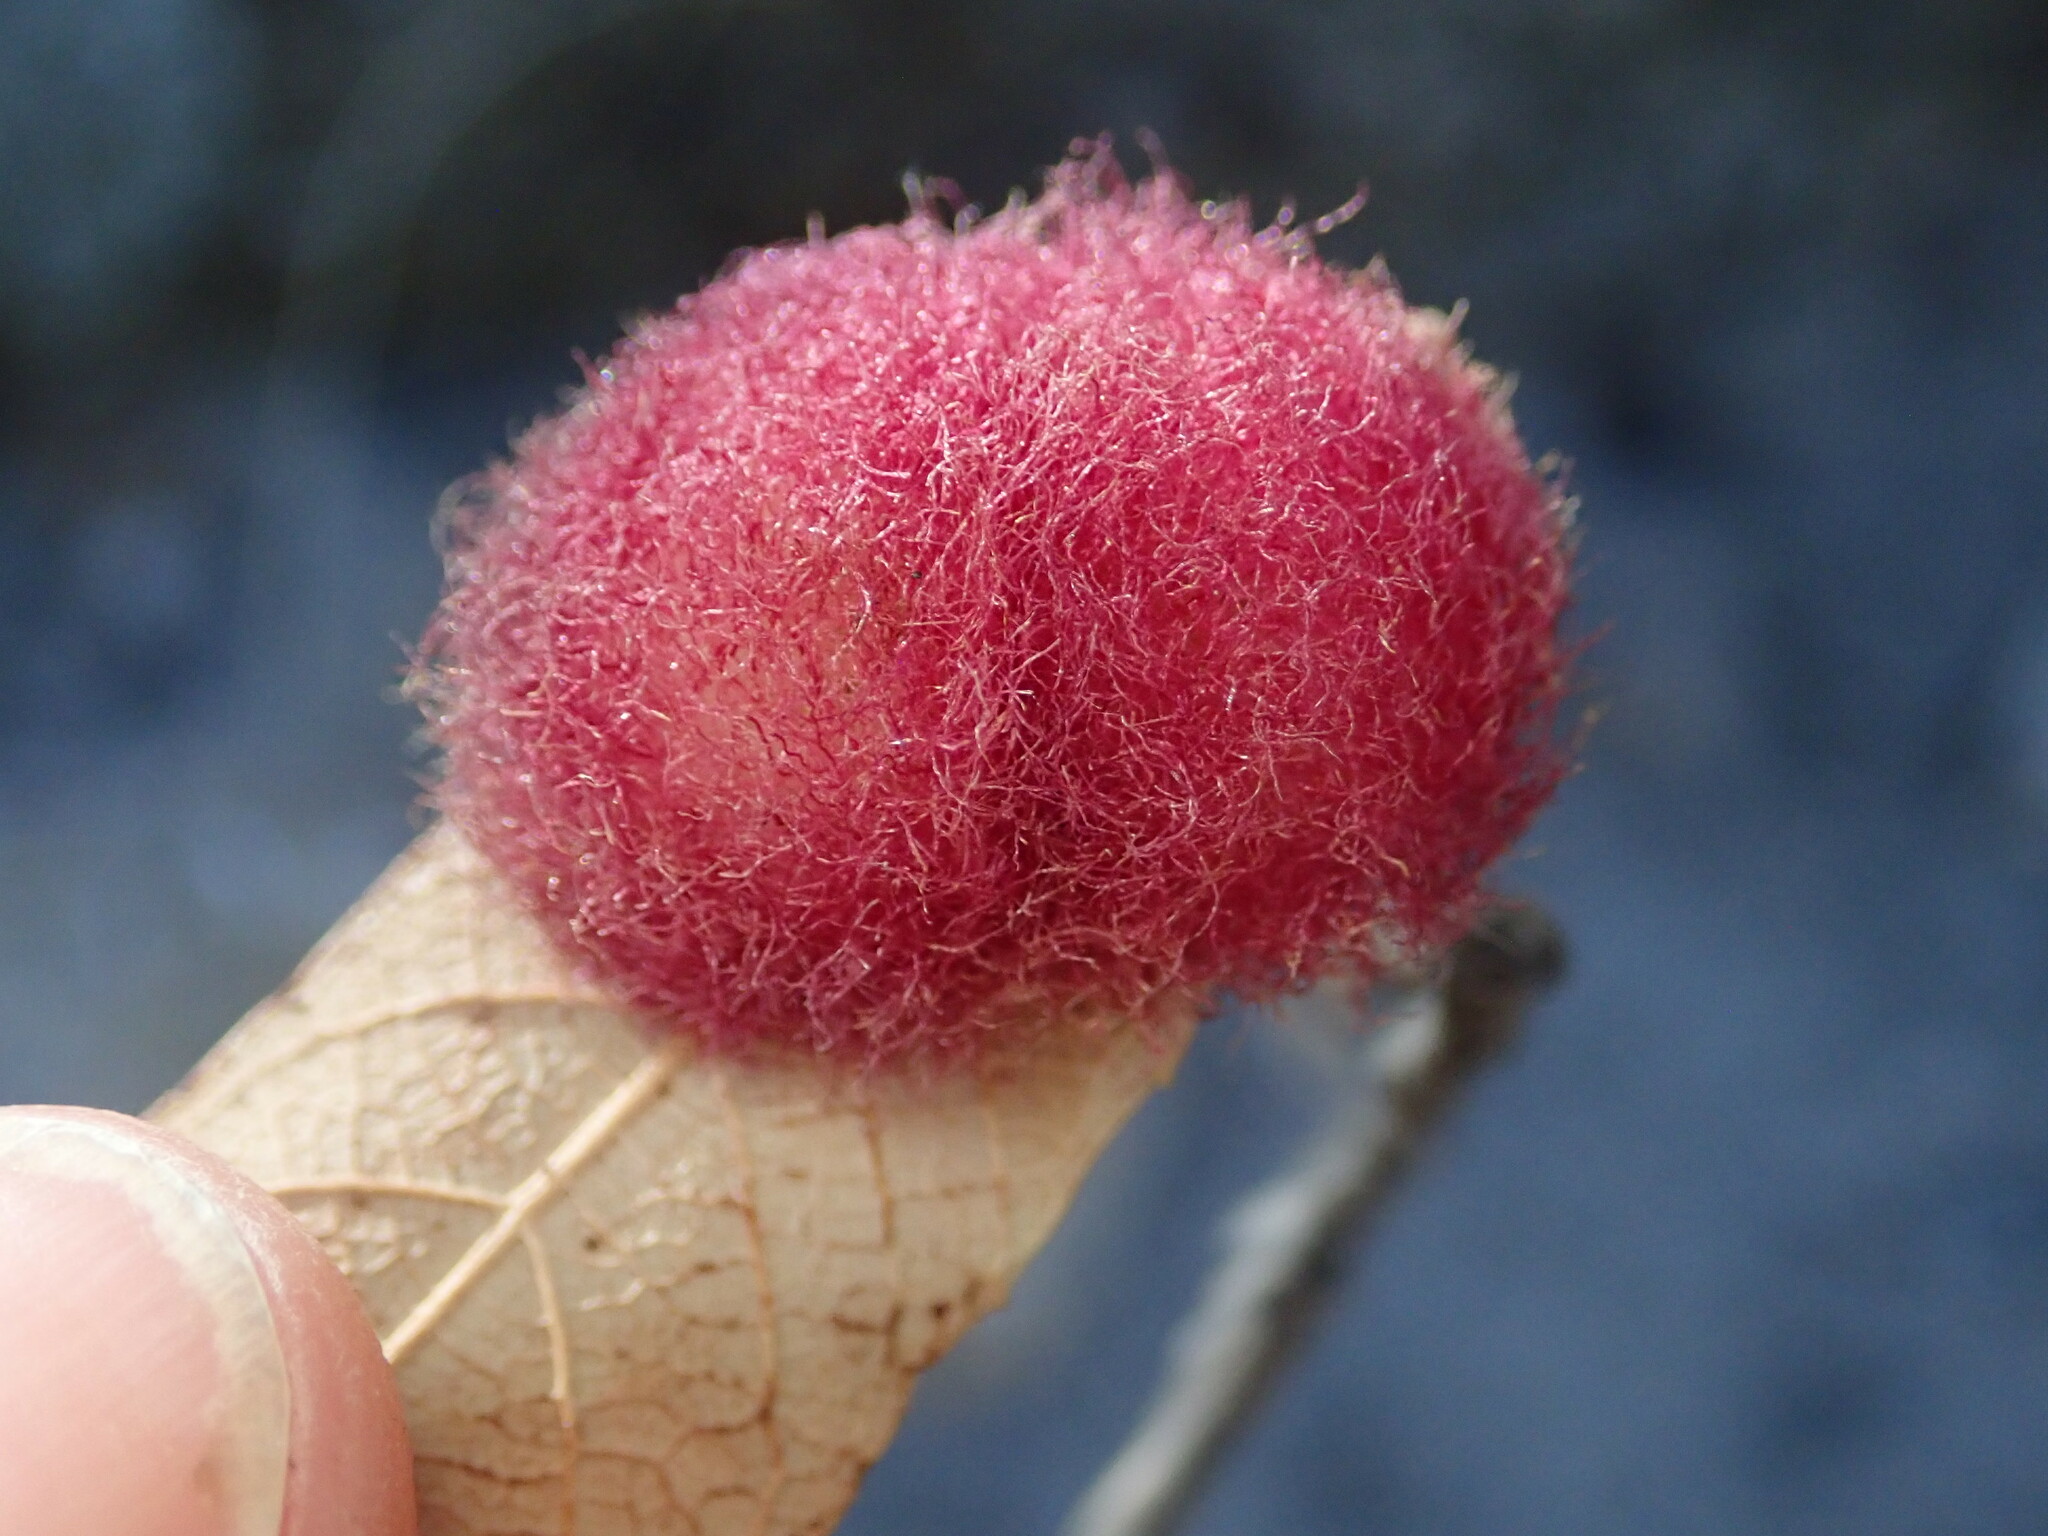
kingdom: Animalia
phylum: Arthropoda
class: Insecta
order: Hymenoptera
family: Cynipidae
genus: Cynips
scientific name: Cynips
